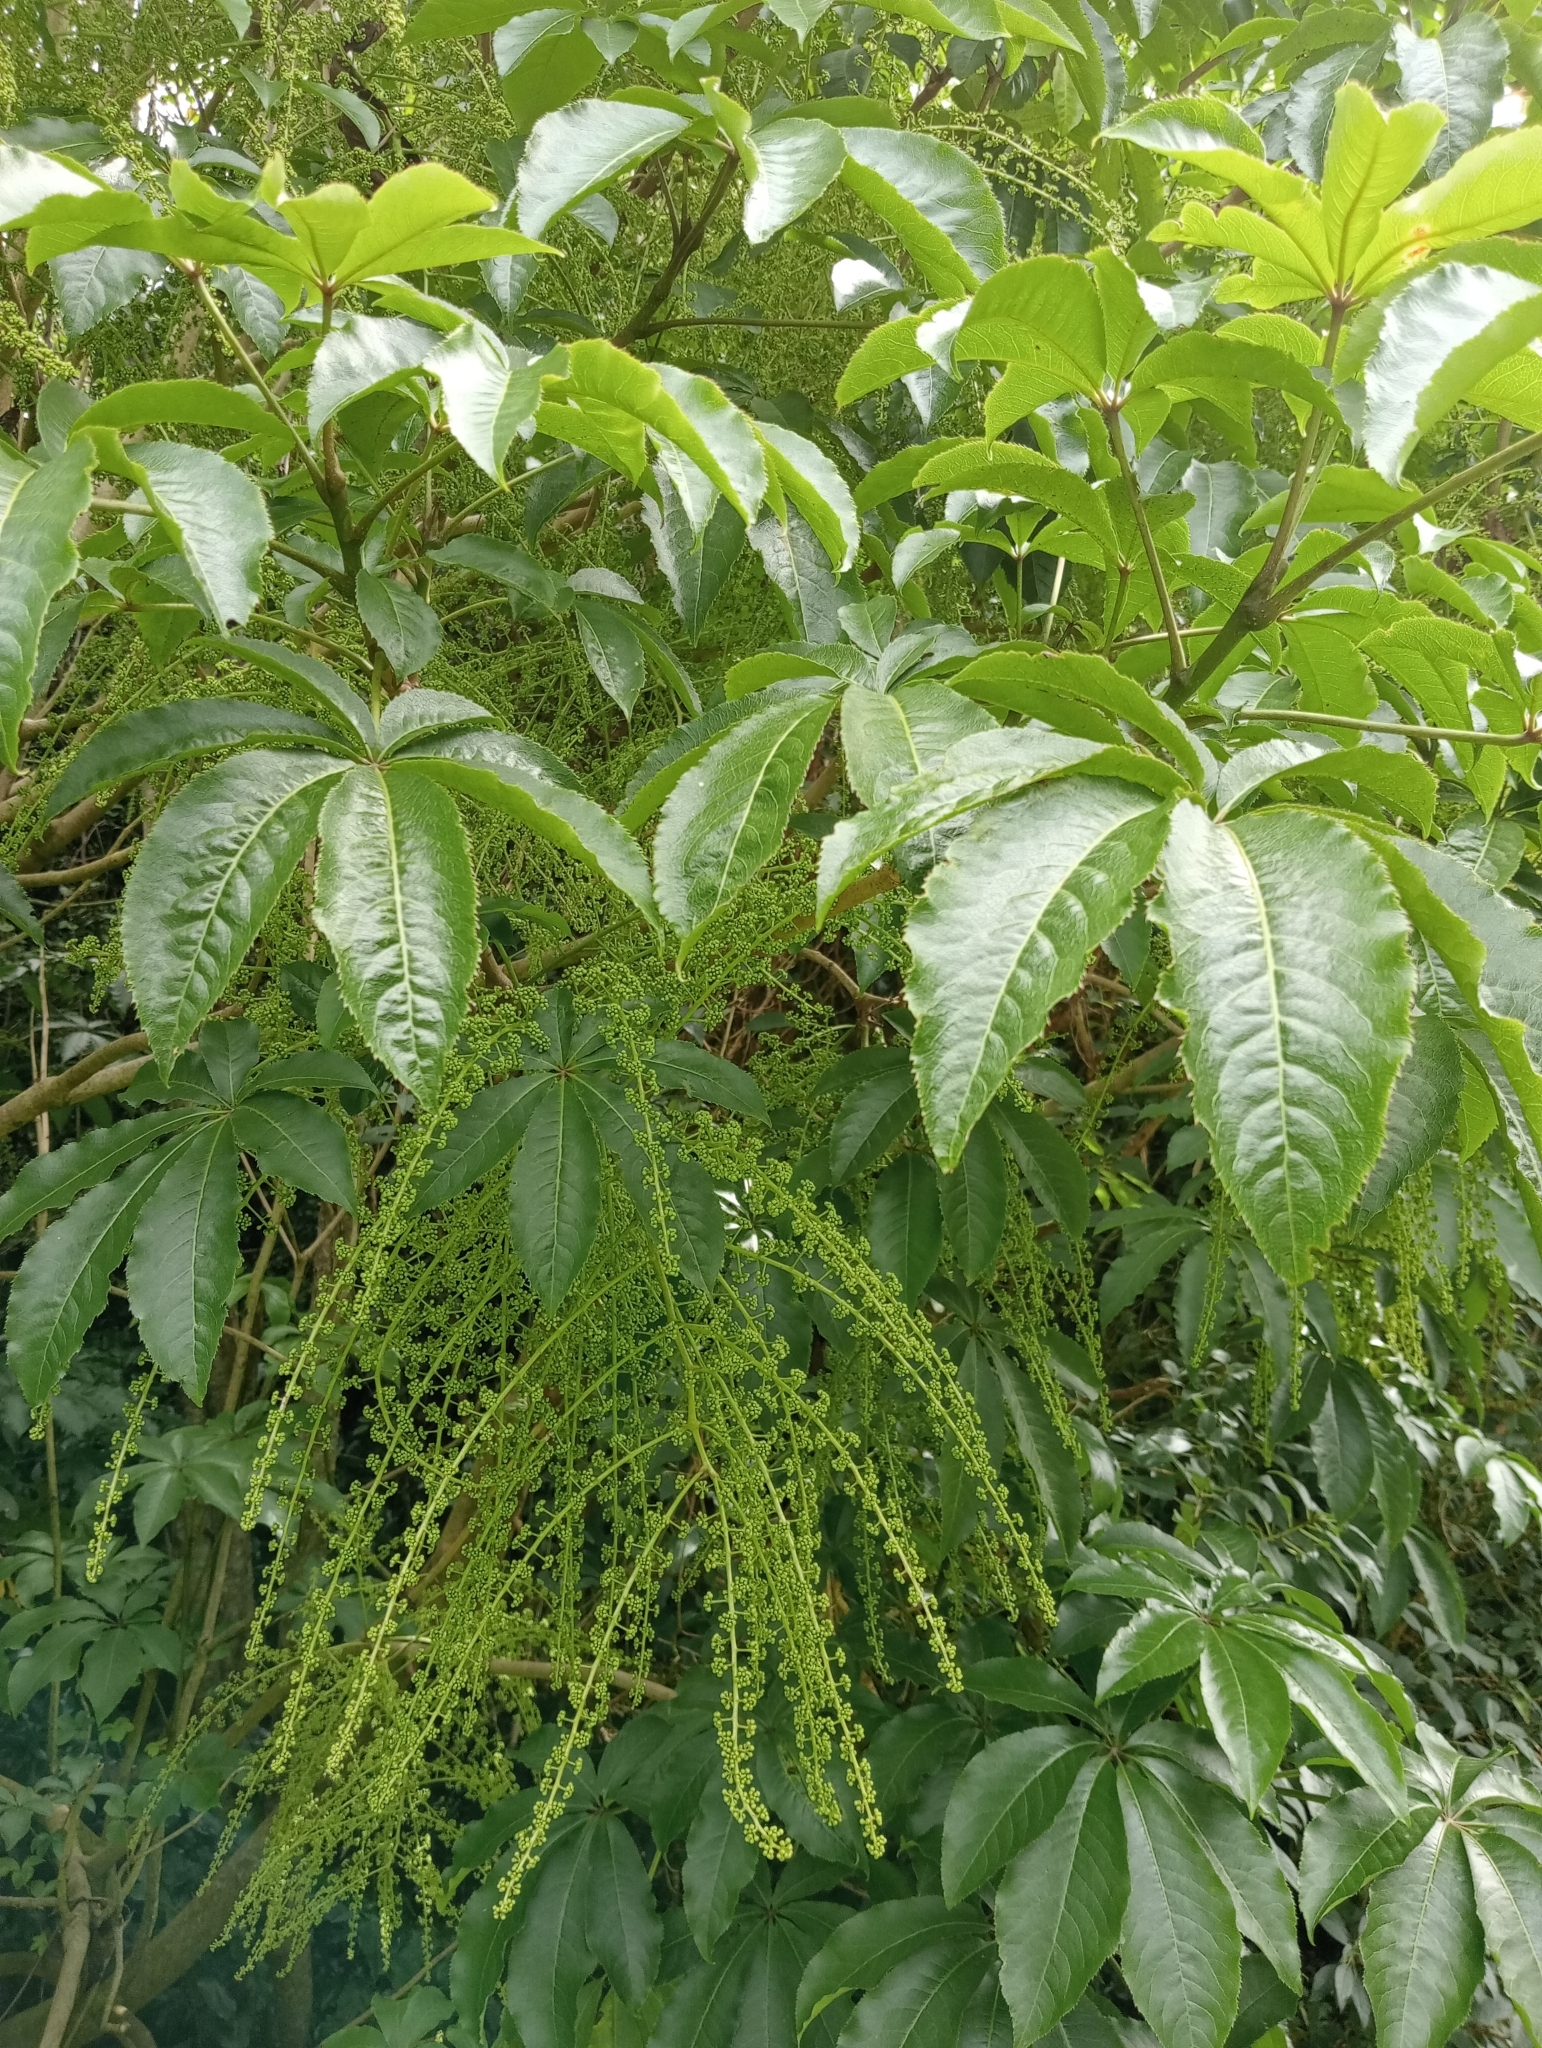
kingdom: Plantae
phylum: Tracheophyta
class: Magnoliopsida
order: Apiales
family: Araliaceae
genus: Schefflera
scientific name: Schefflera digitata
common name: Pate
